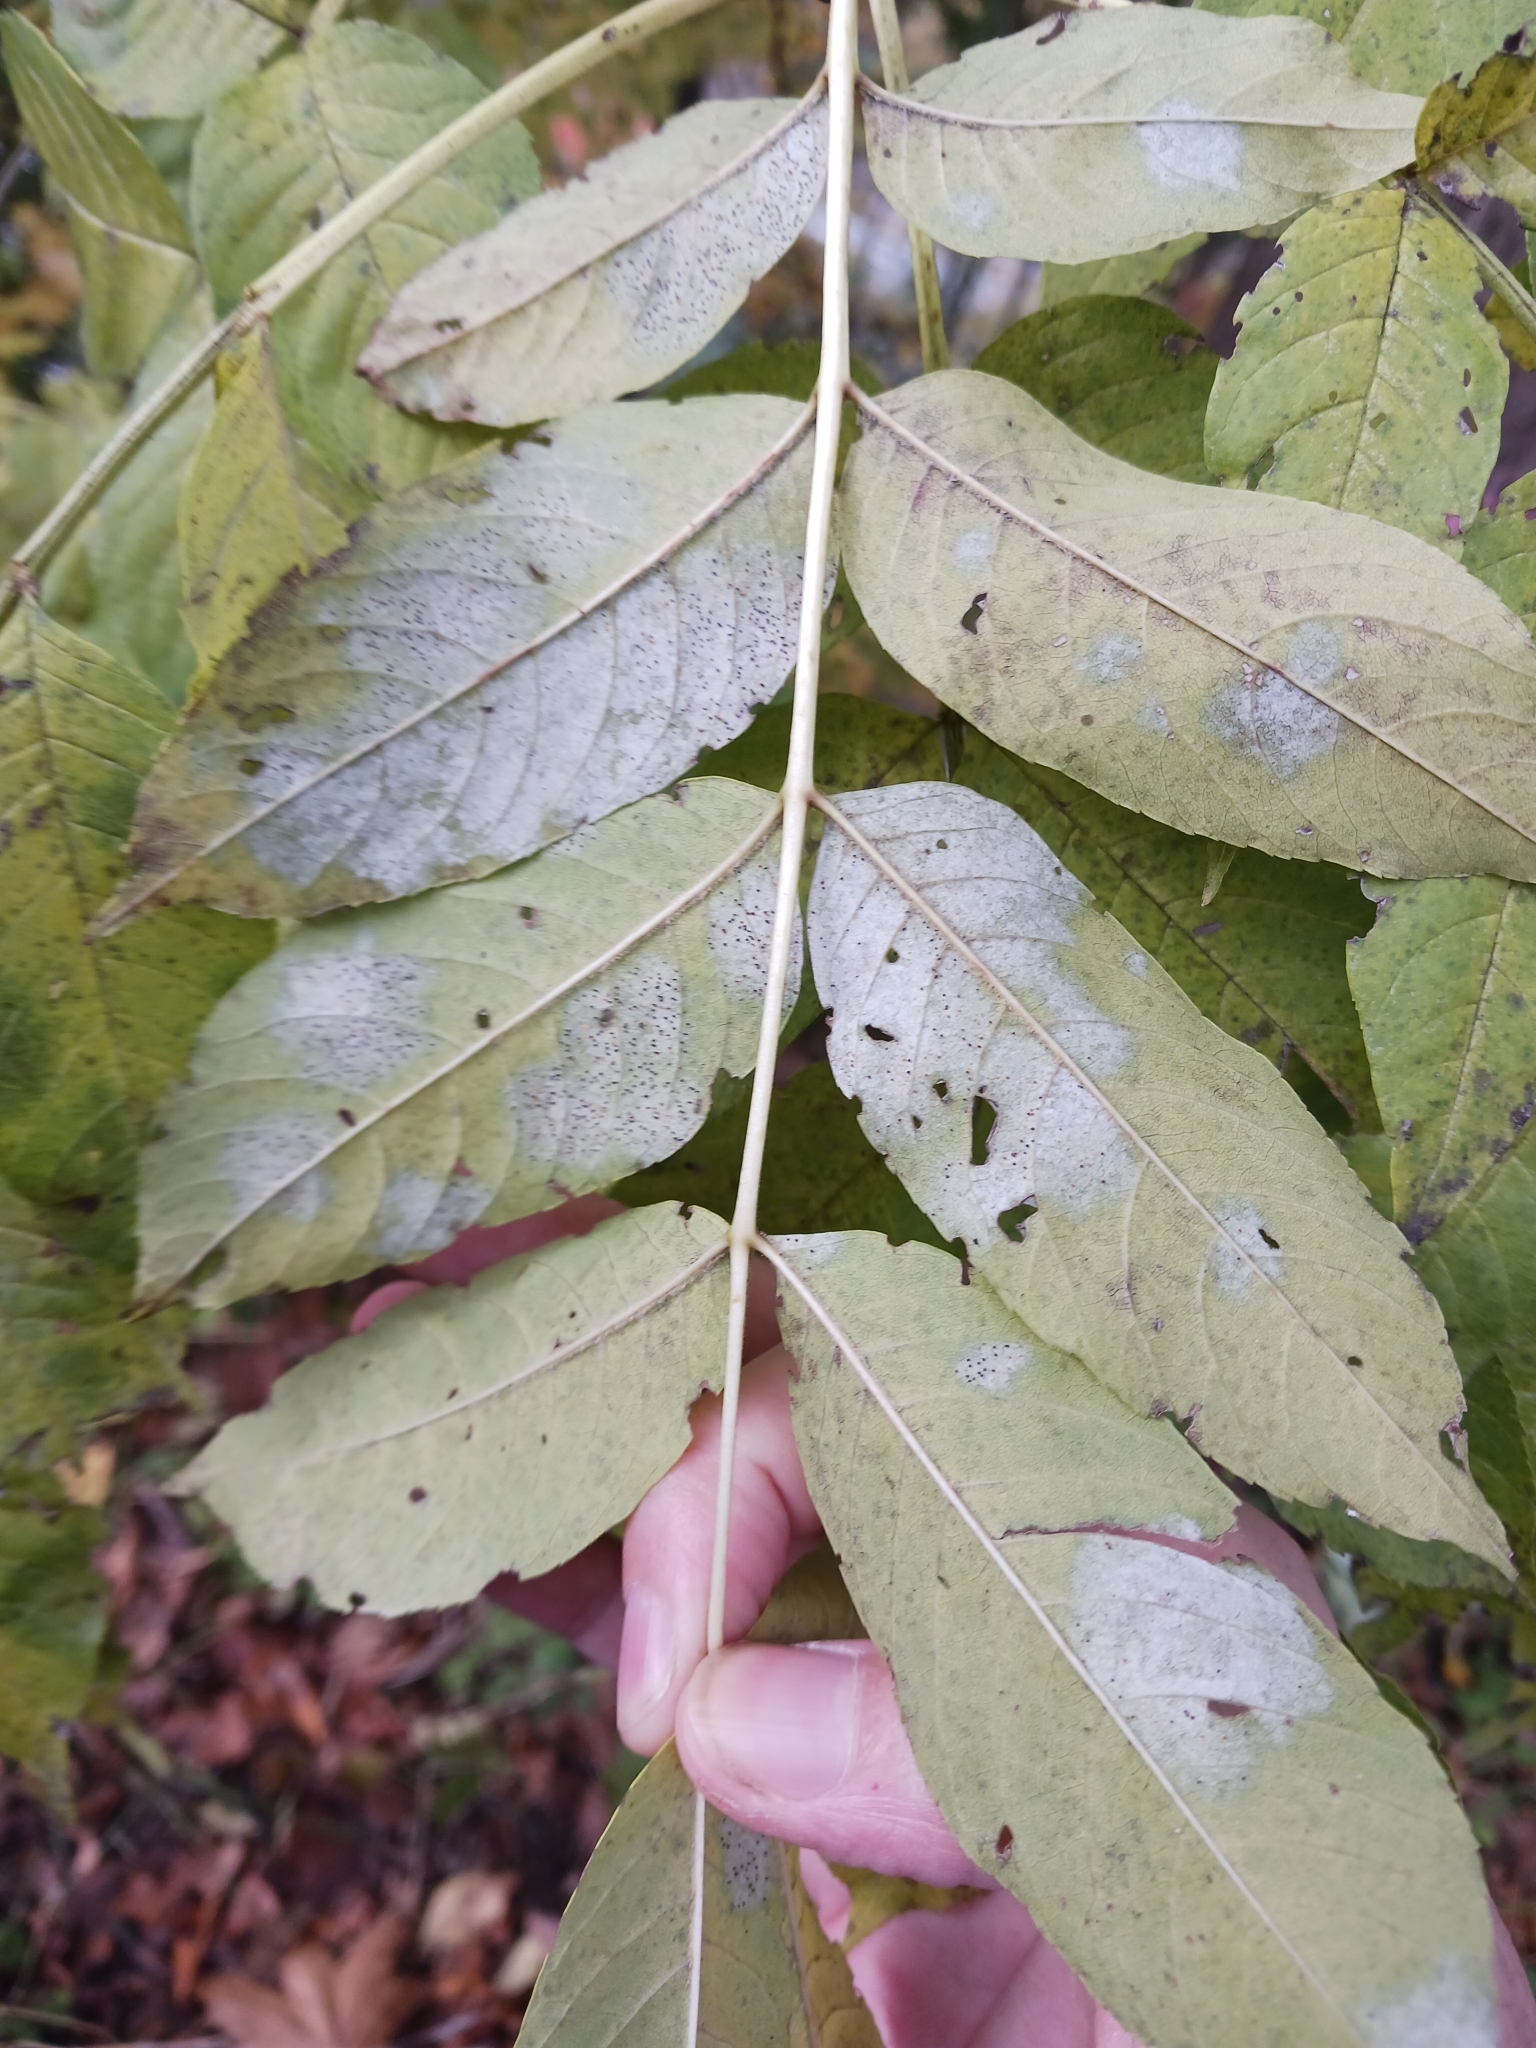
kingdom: Fungi
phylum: Ascomycota
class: Leotiomycetes
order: Helotiales
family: Erysiphaceae
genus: Phyllactinia
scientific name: Phyllactinia fraxini
